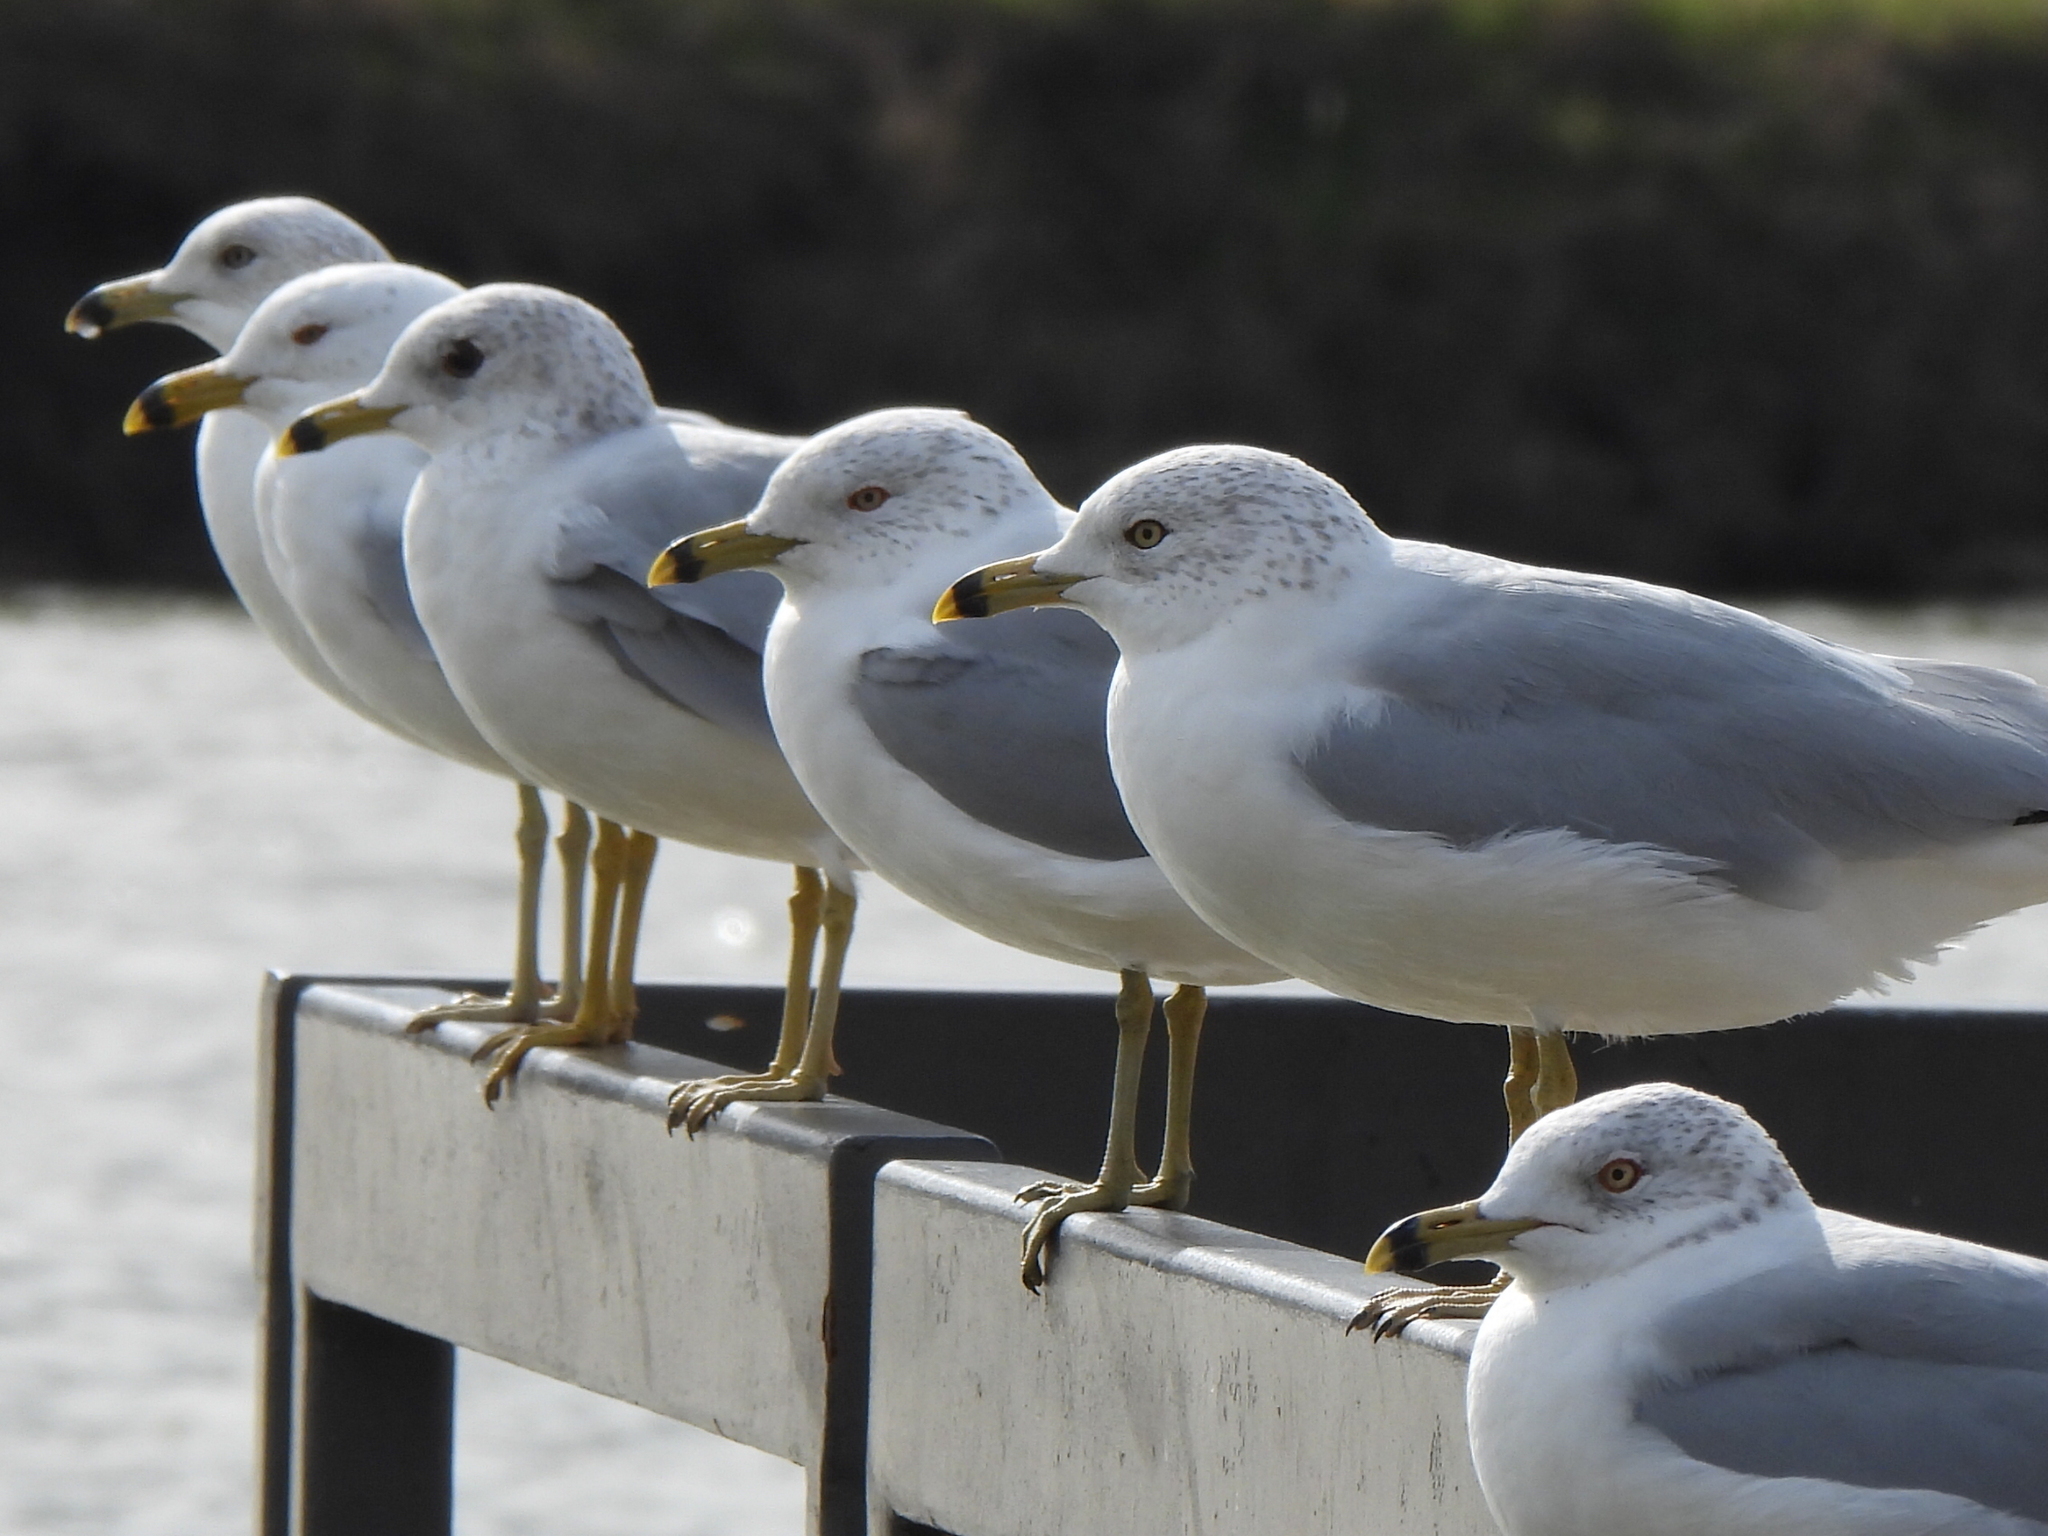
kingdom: Animalia
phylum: Chordata
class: Aves
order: Charadriiformes
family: Laridae
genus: Larus
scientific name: Larus delawarensis
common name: Ring-billed gull
